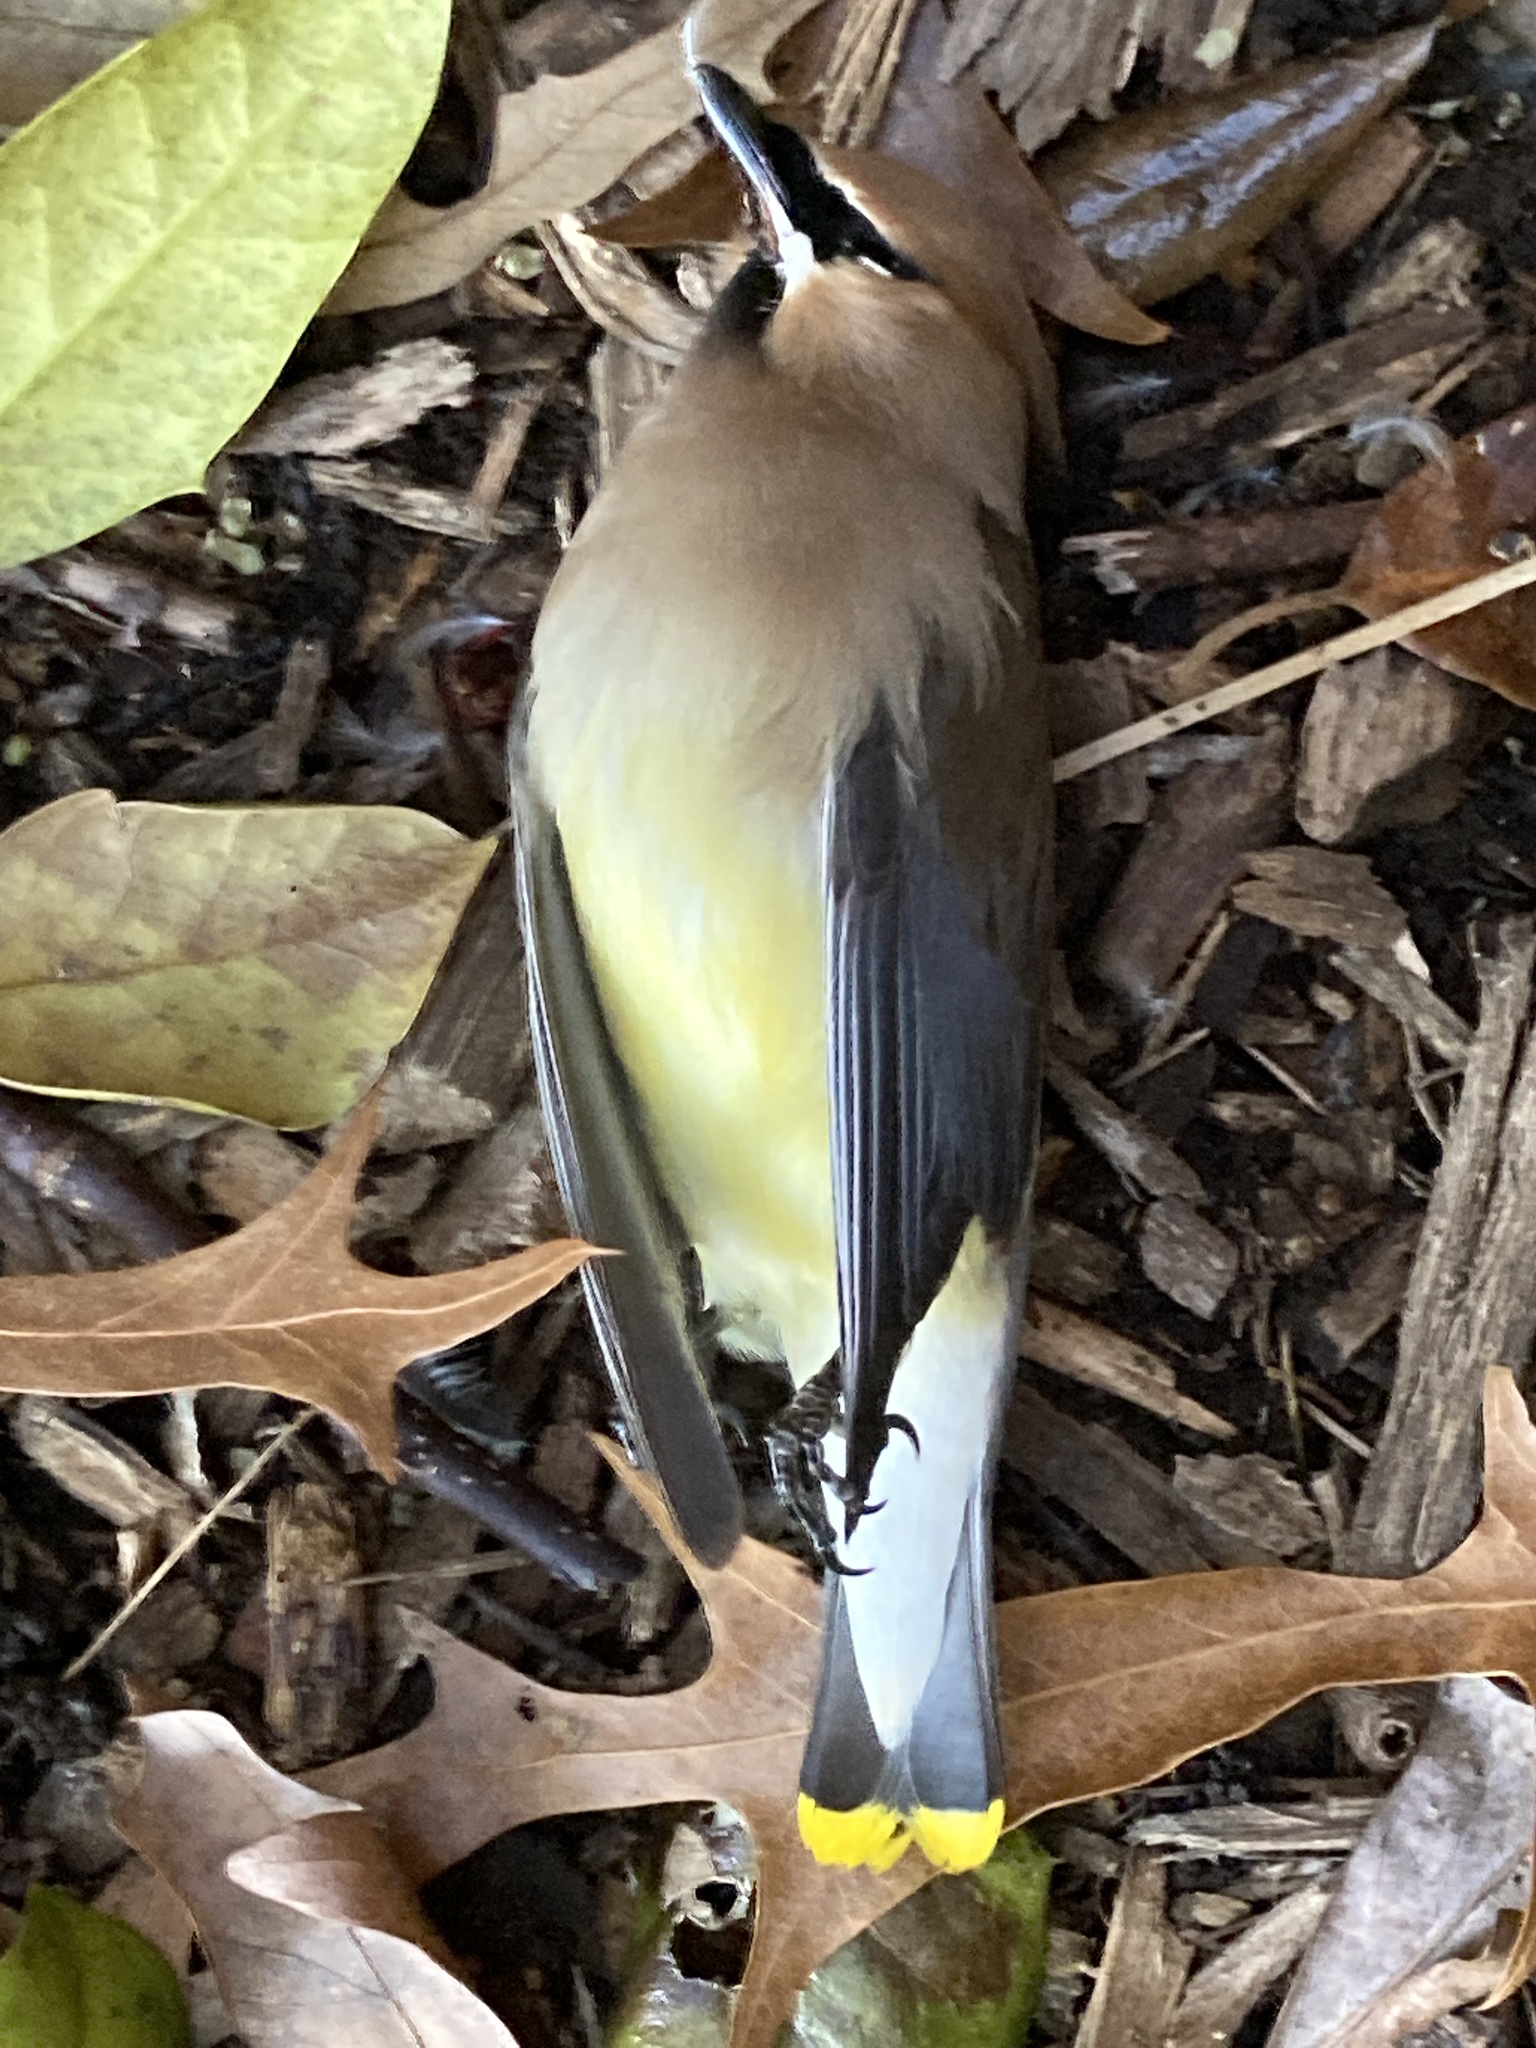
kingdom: Animalia
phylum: Chordata
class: Aves
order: Passeriformes
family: Bombycillidae
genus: Bombycilla
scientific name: Bombycilla cedrorum
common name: Cedar waxwing
